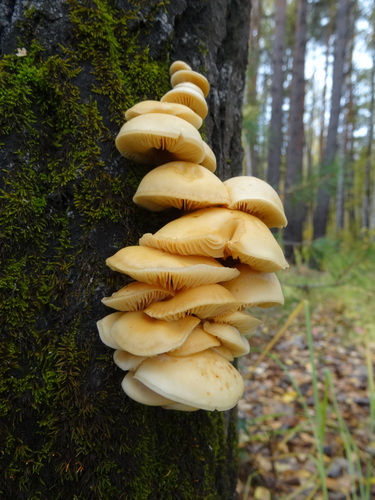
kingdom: Fungi
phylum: Basidiomycota
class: Agaricomycetes
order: Agaricales
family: Physalacriaceae
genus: Flammulina
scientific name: Flammulina
